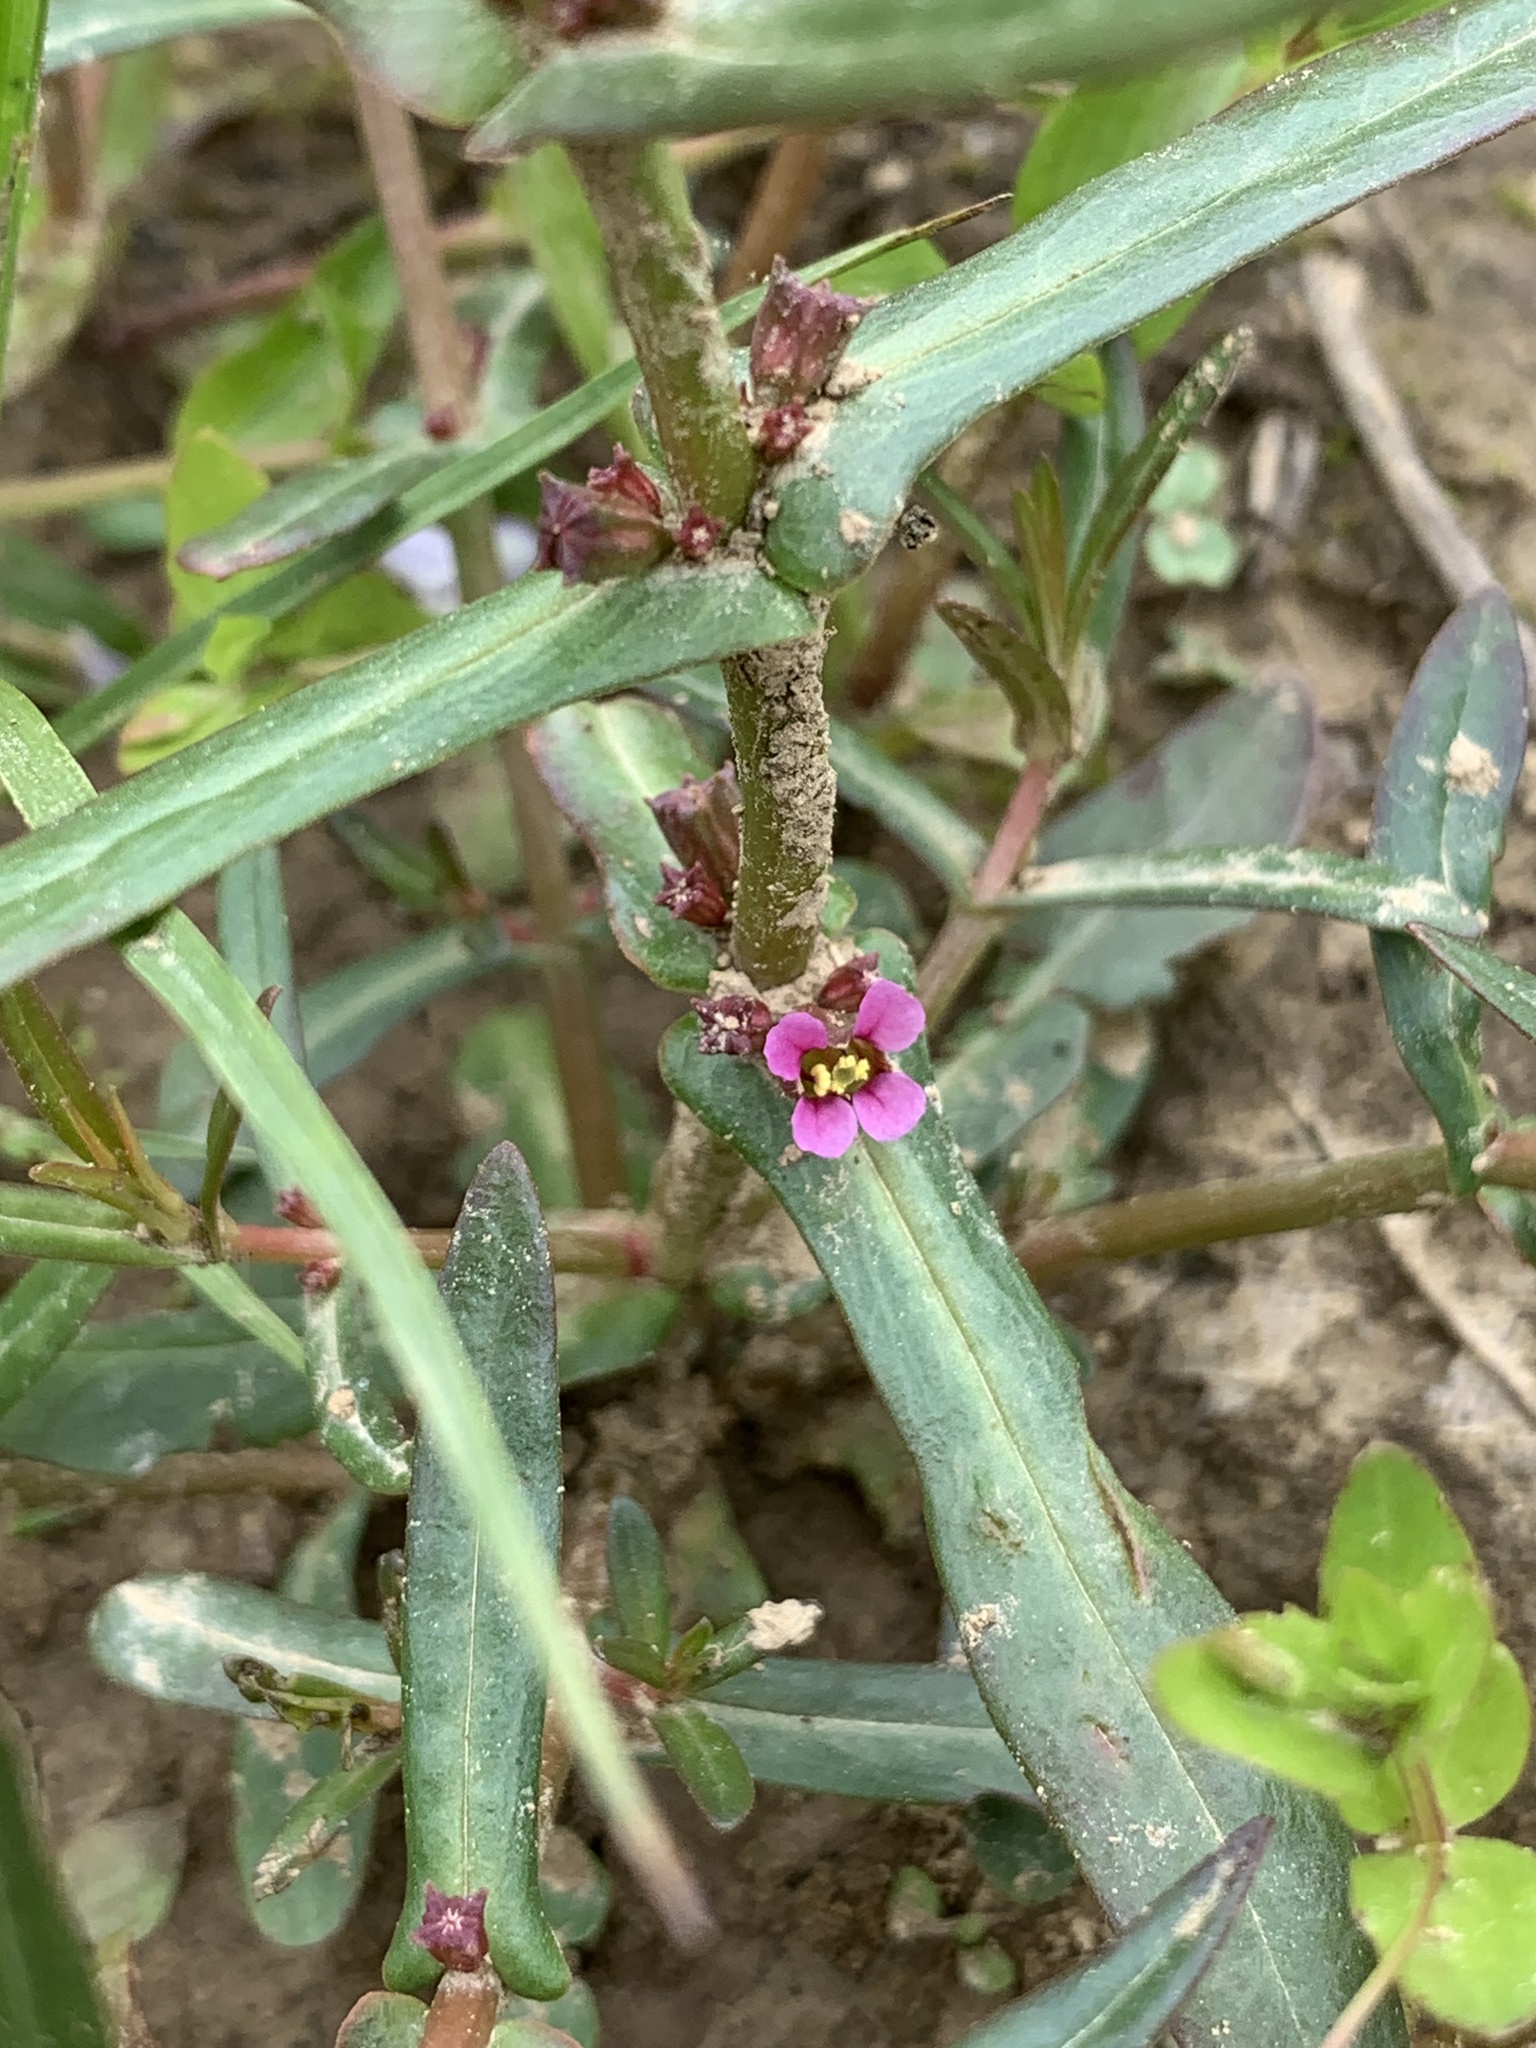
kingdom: Plantae
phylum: Tracheophyta
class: Magnoliopsida
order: Myrtales
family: Lythraceae
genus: Ammannia
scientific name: Ammannia coccinea
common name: Valley redstem
